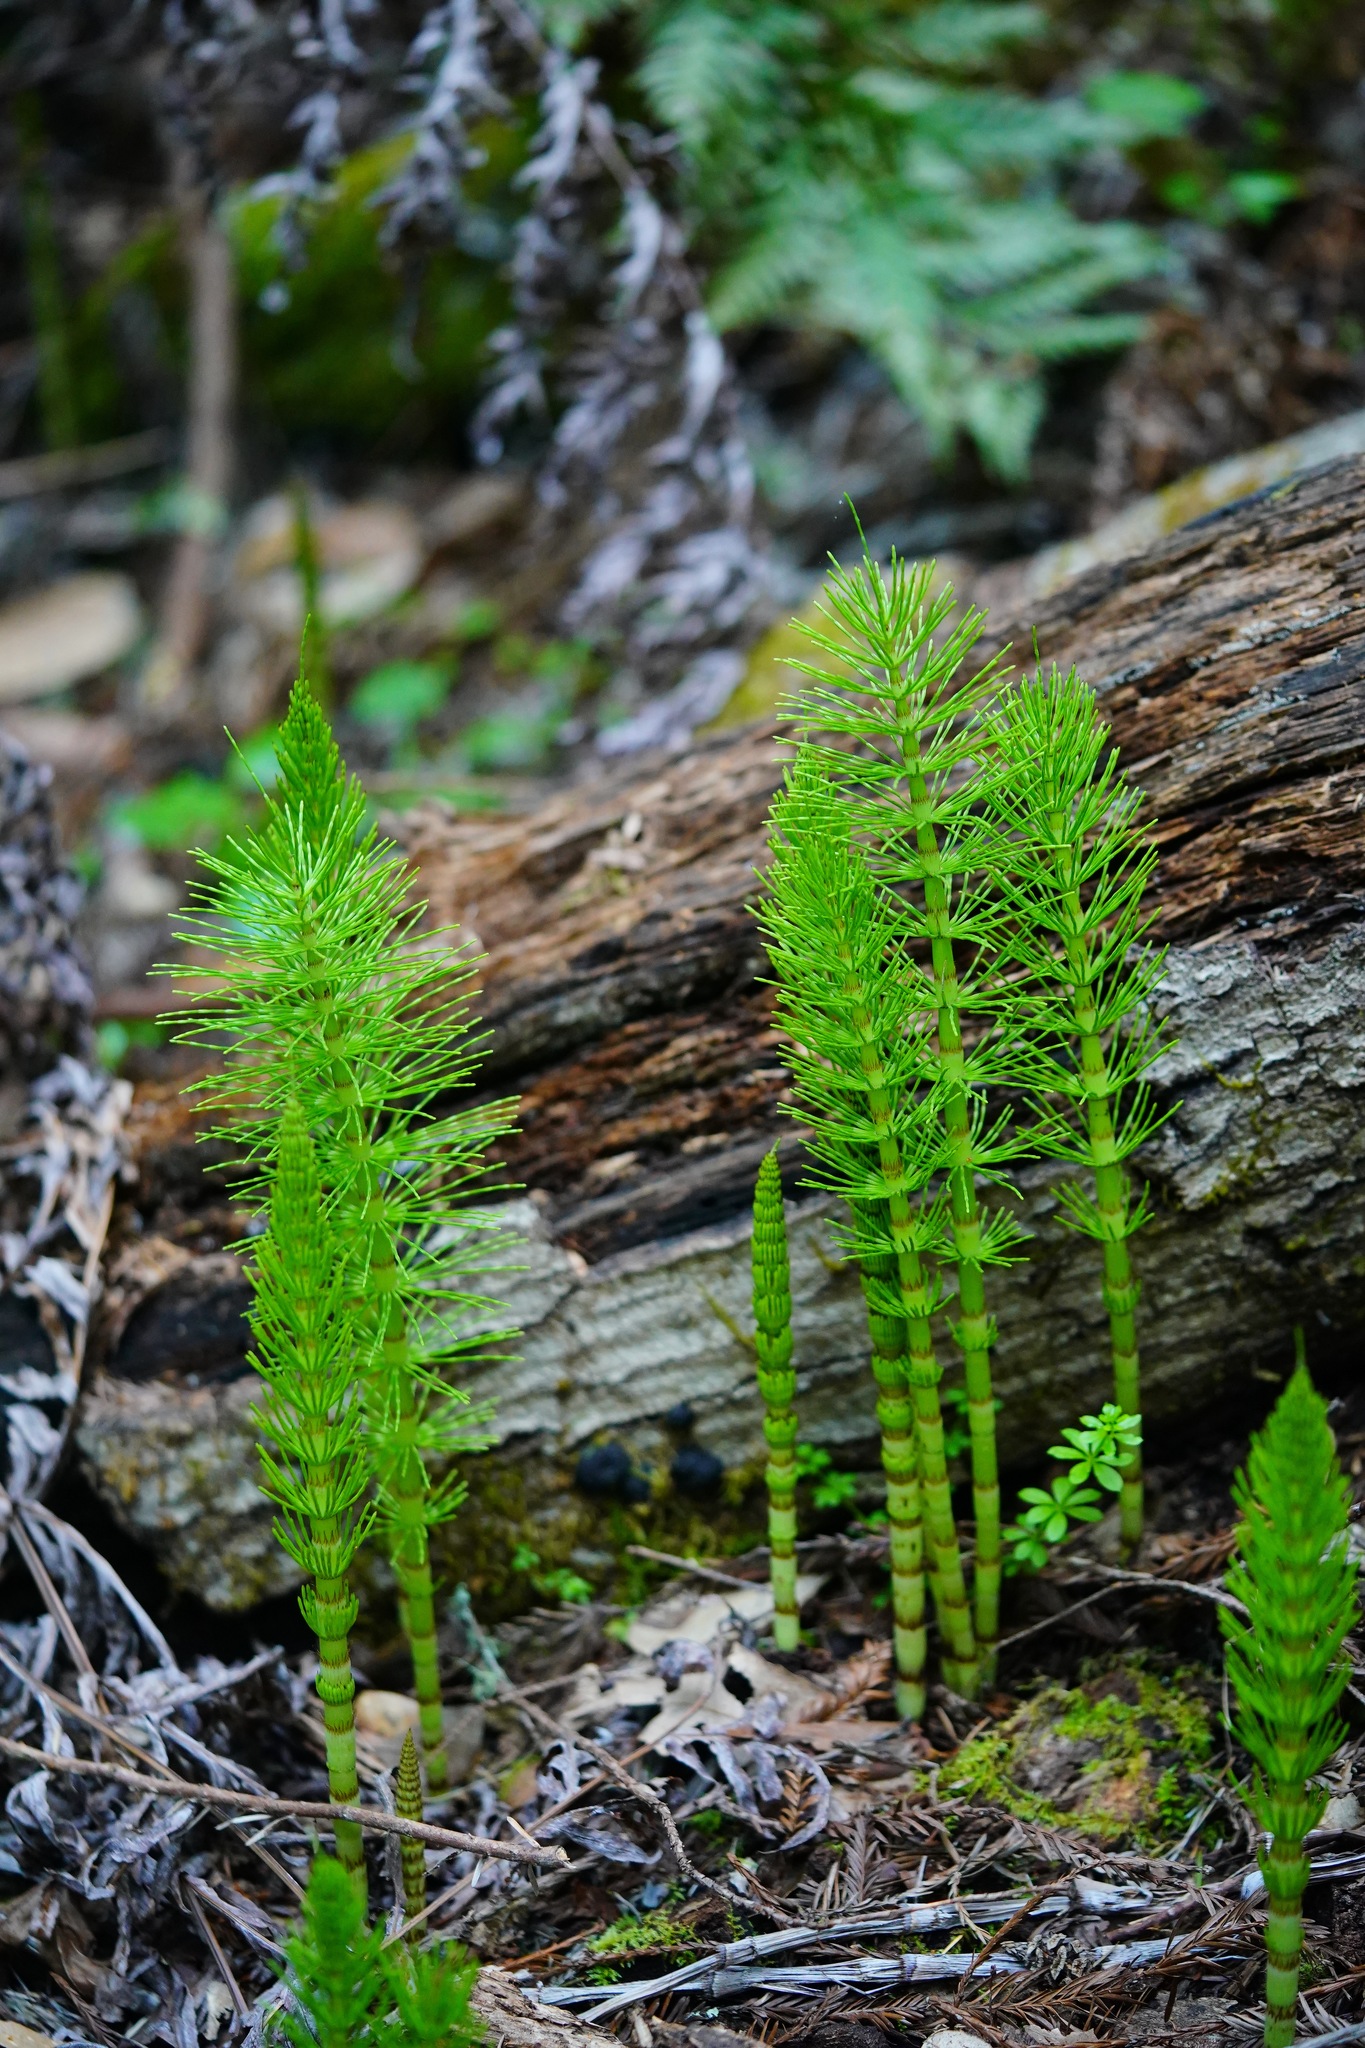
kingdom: Plantae
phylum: Tracheophyta
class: Polypodiopsida
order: Equisetales
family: Equisetaceae
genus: Equisetum
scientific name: Equisetum telmateia
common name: Great horsetail
